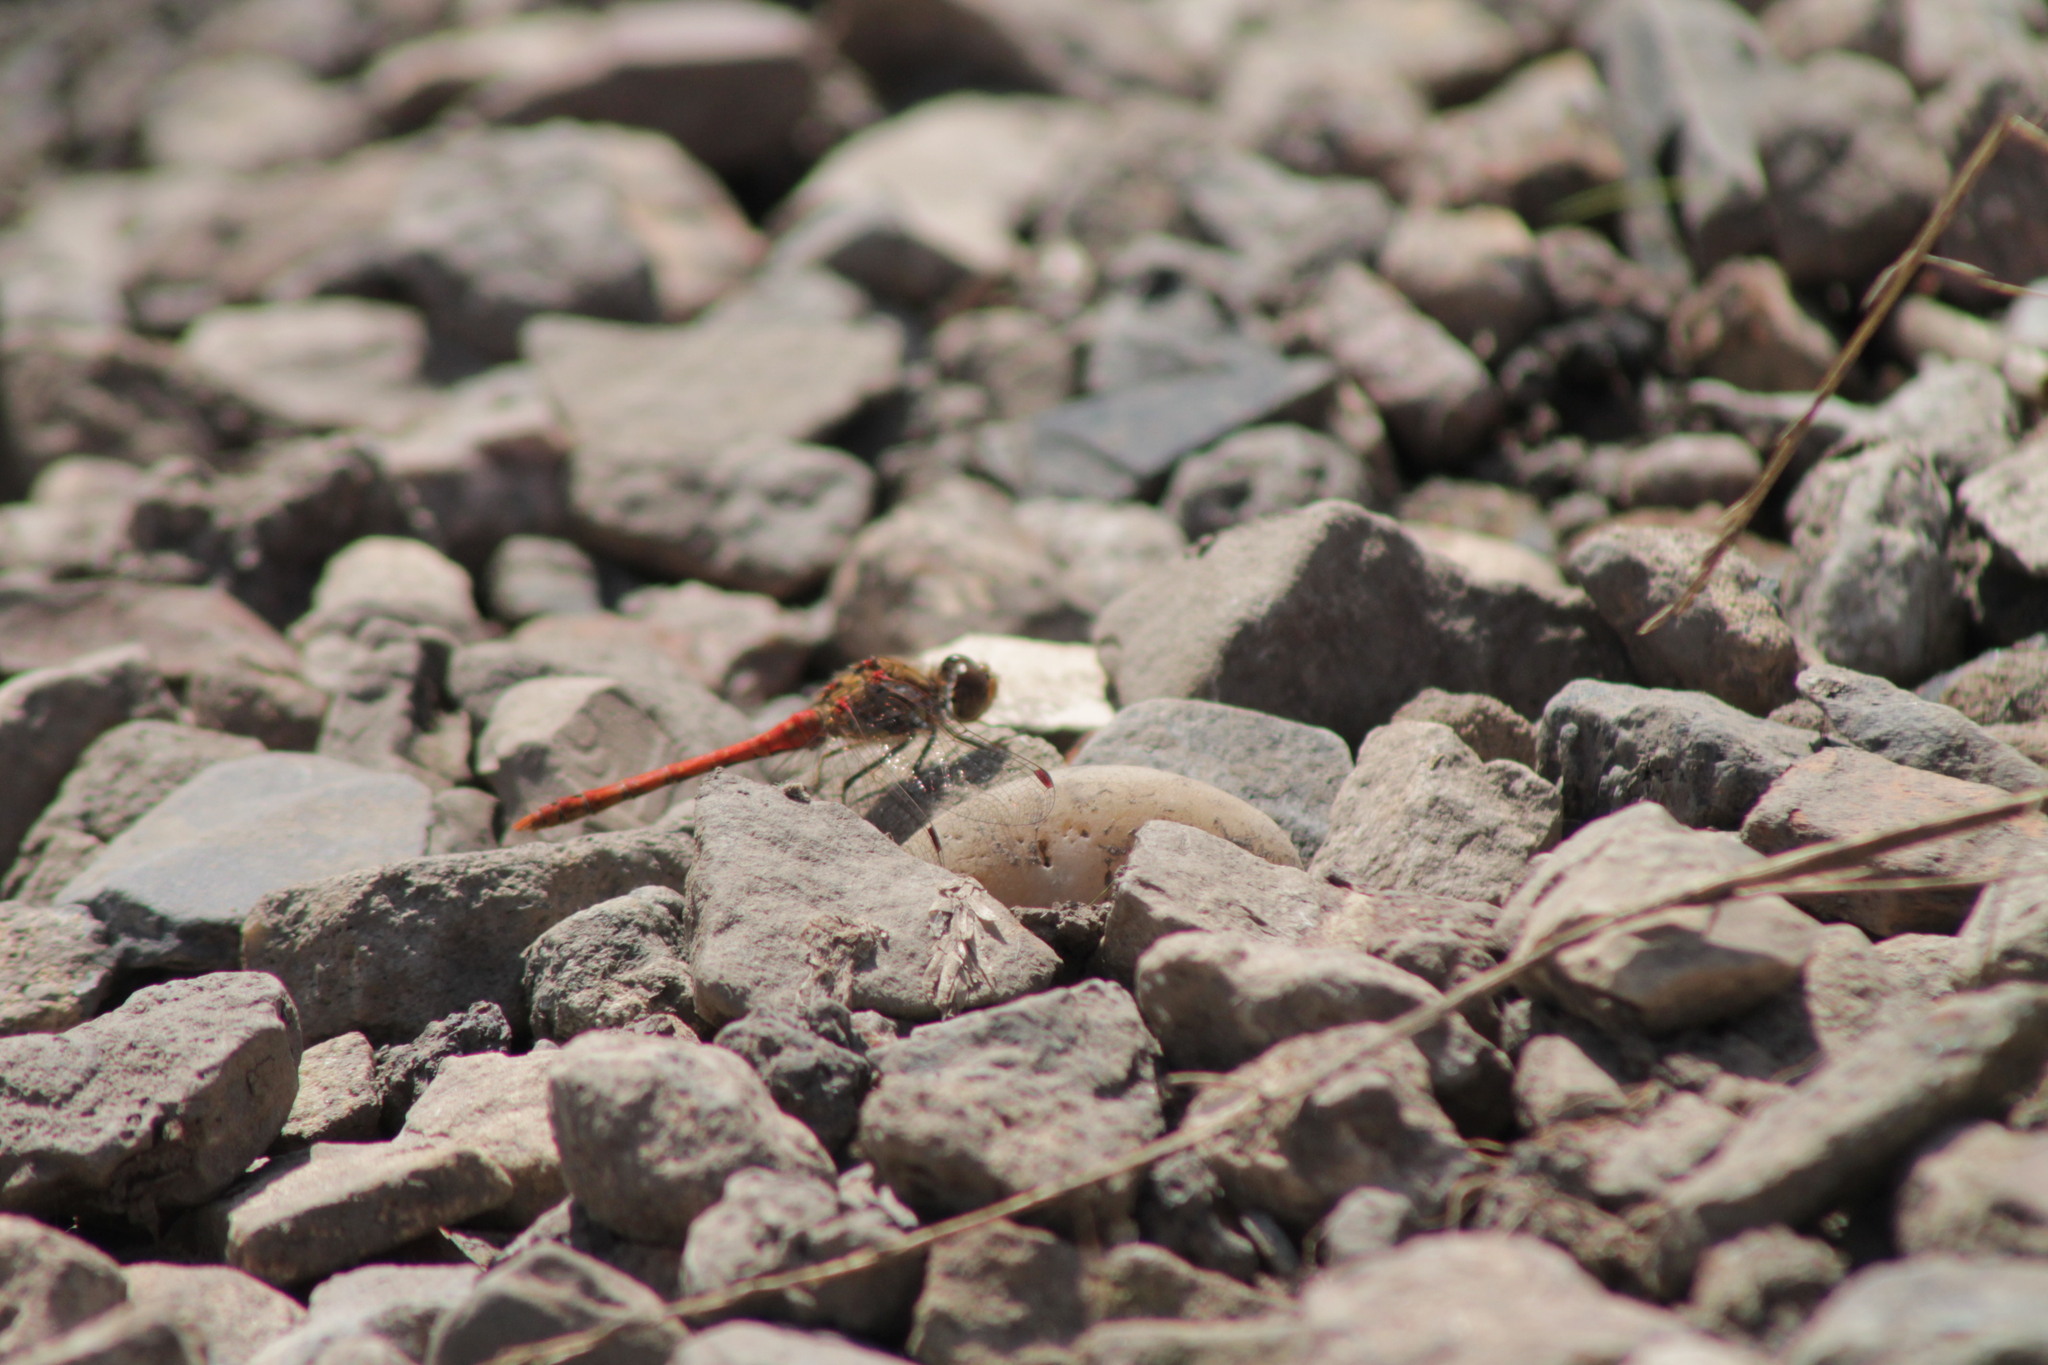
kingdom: Animalia
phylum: Arthropoda
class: Insecta
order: Odonata
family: Libellulidae
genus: Sympetrum
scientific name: Sympetrum striolatum
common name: Common darter
